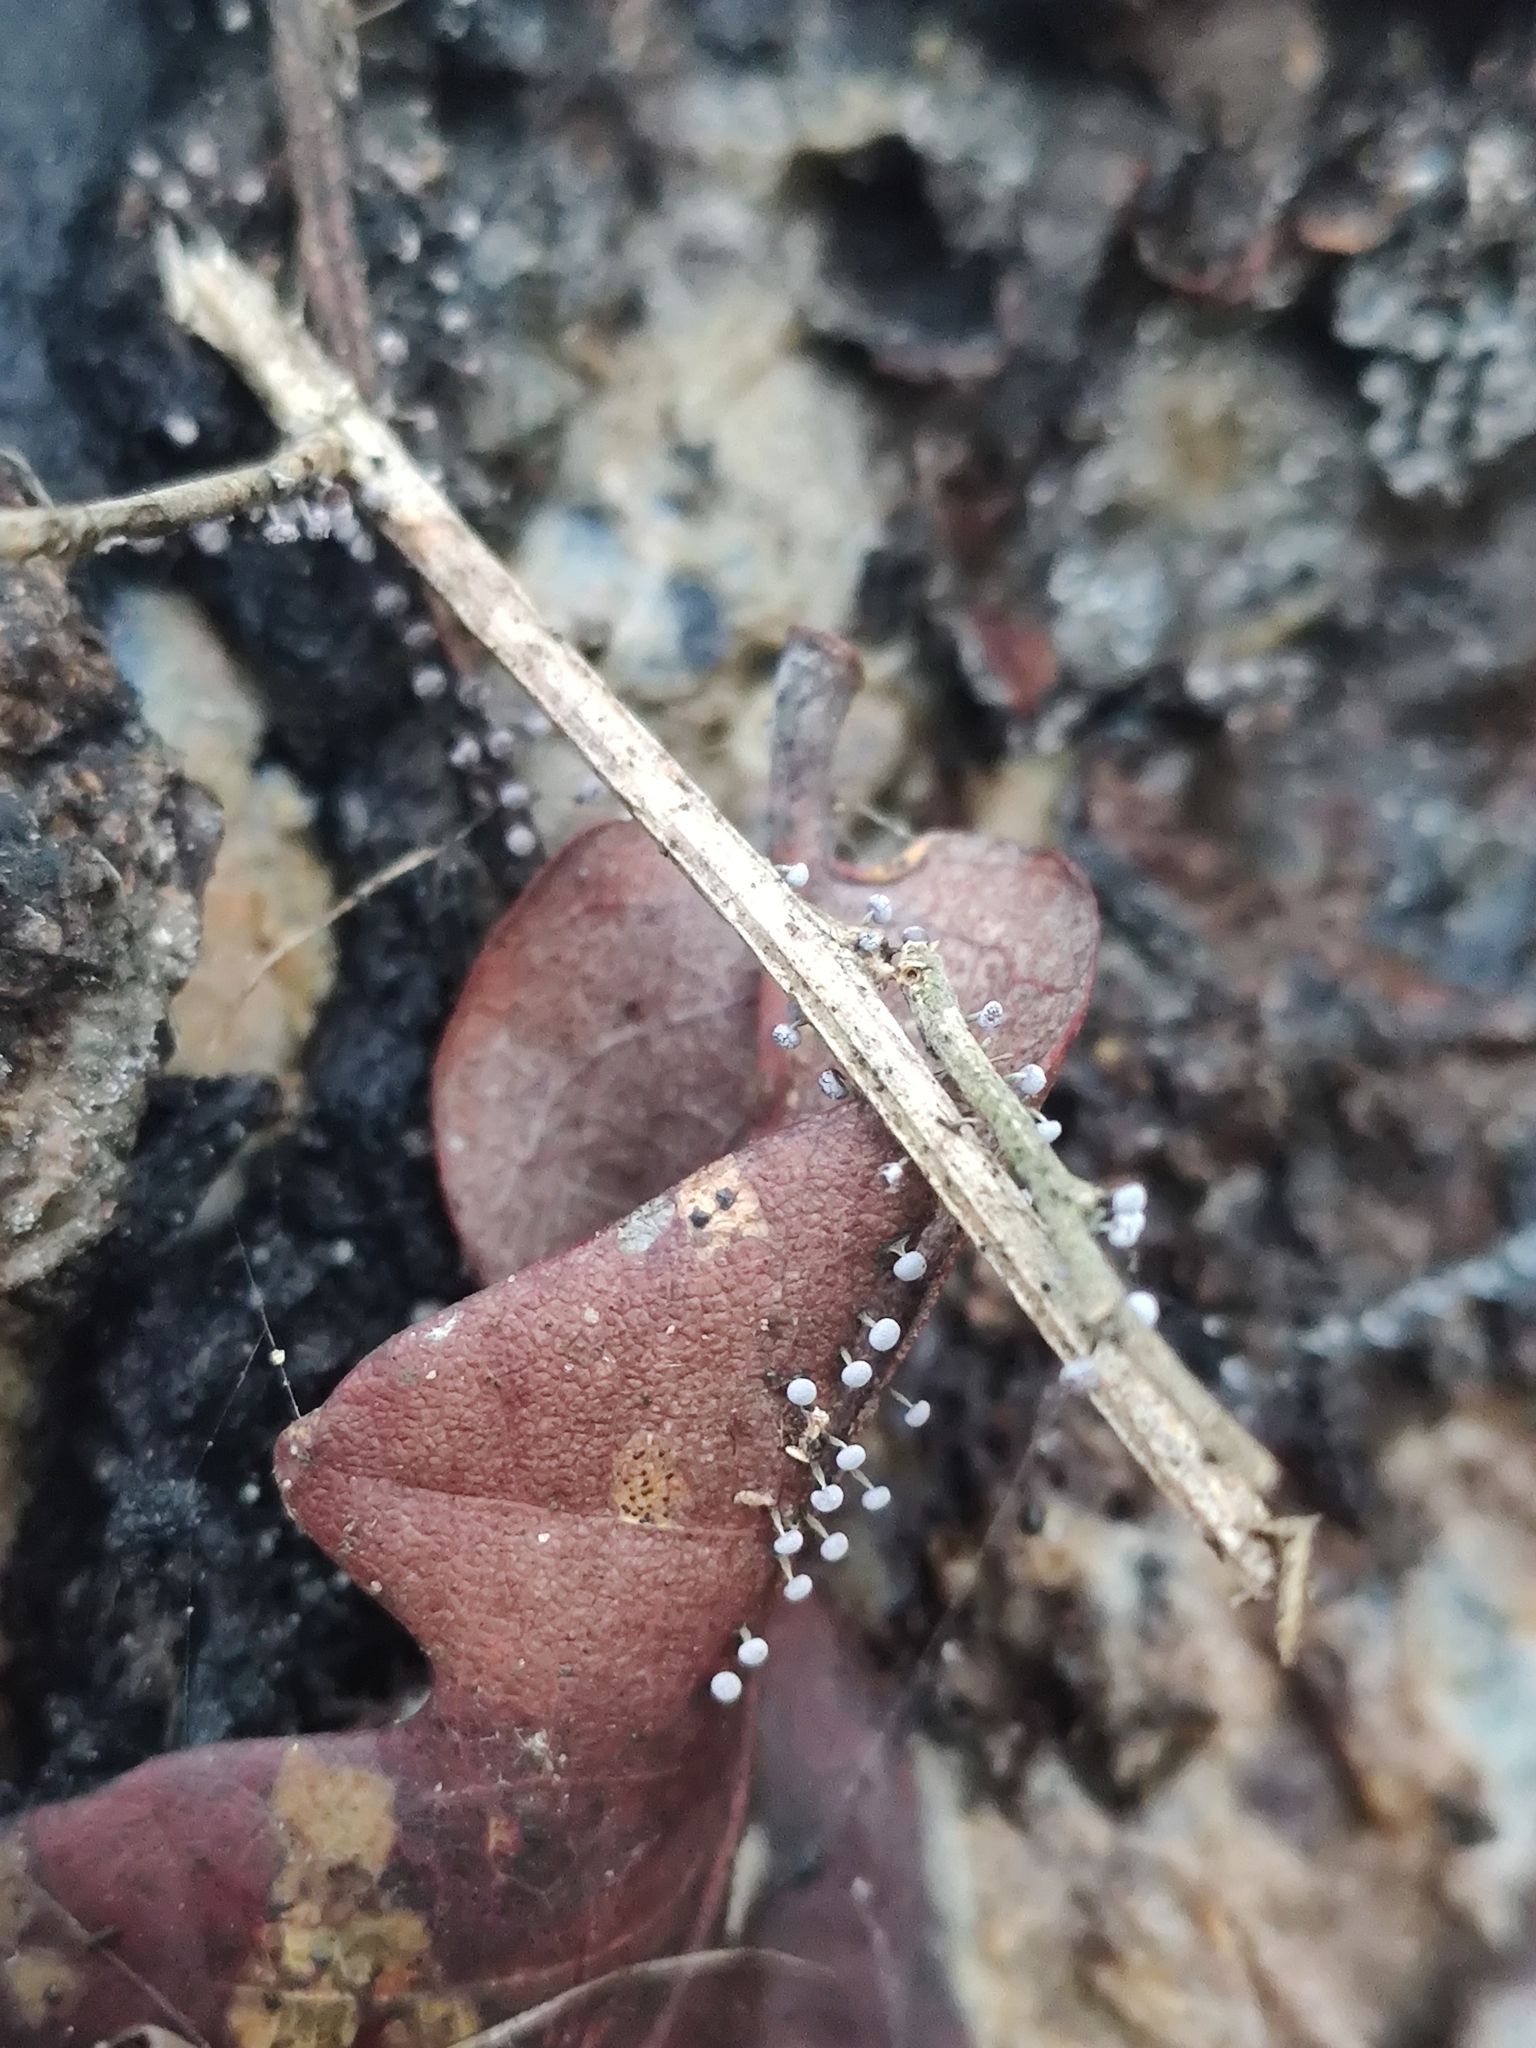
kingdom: Protozoa
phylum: Mycetozoa
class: Myxomycetes
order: Physarales
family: Physaraceae
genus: Physarum
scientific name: Physarum album
